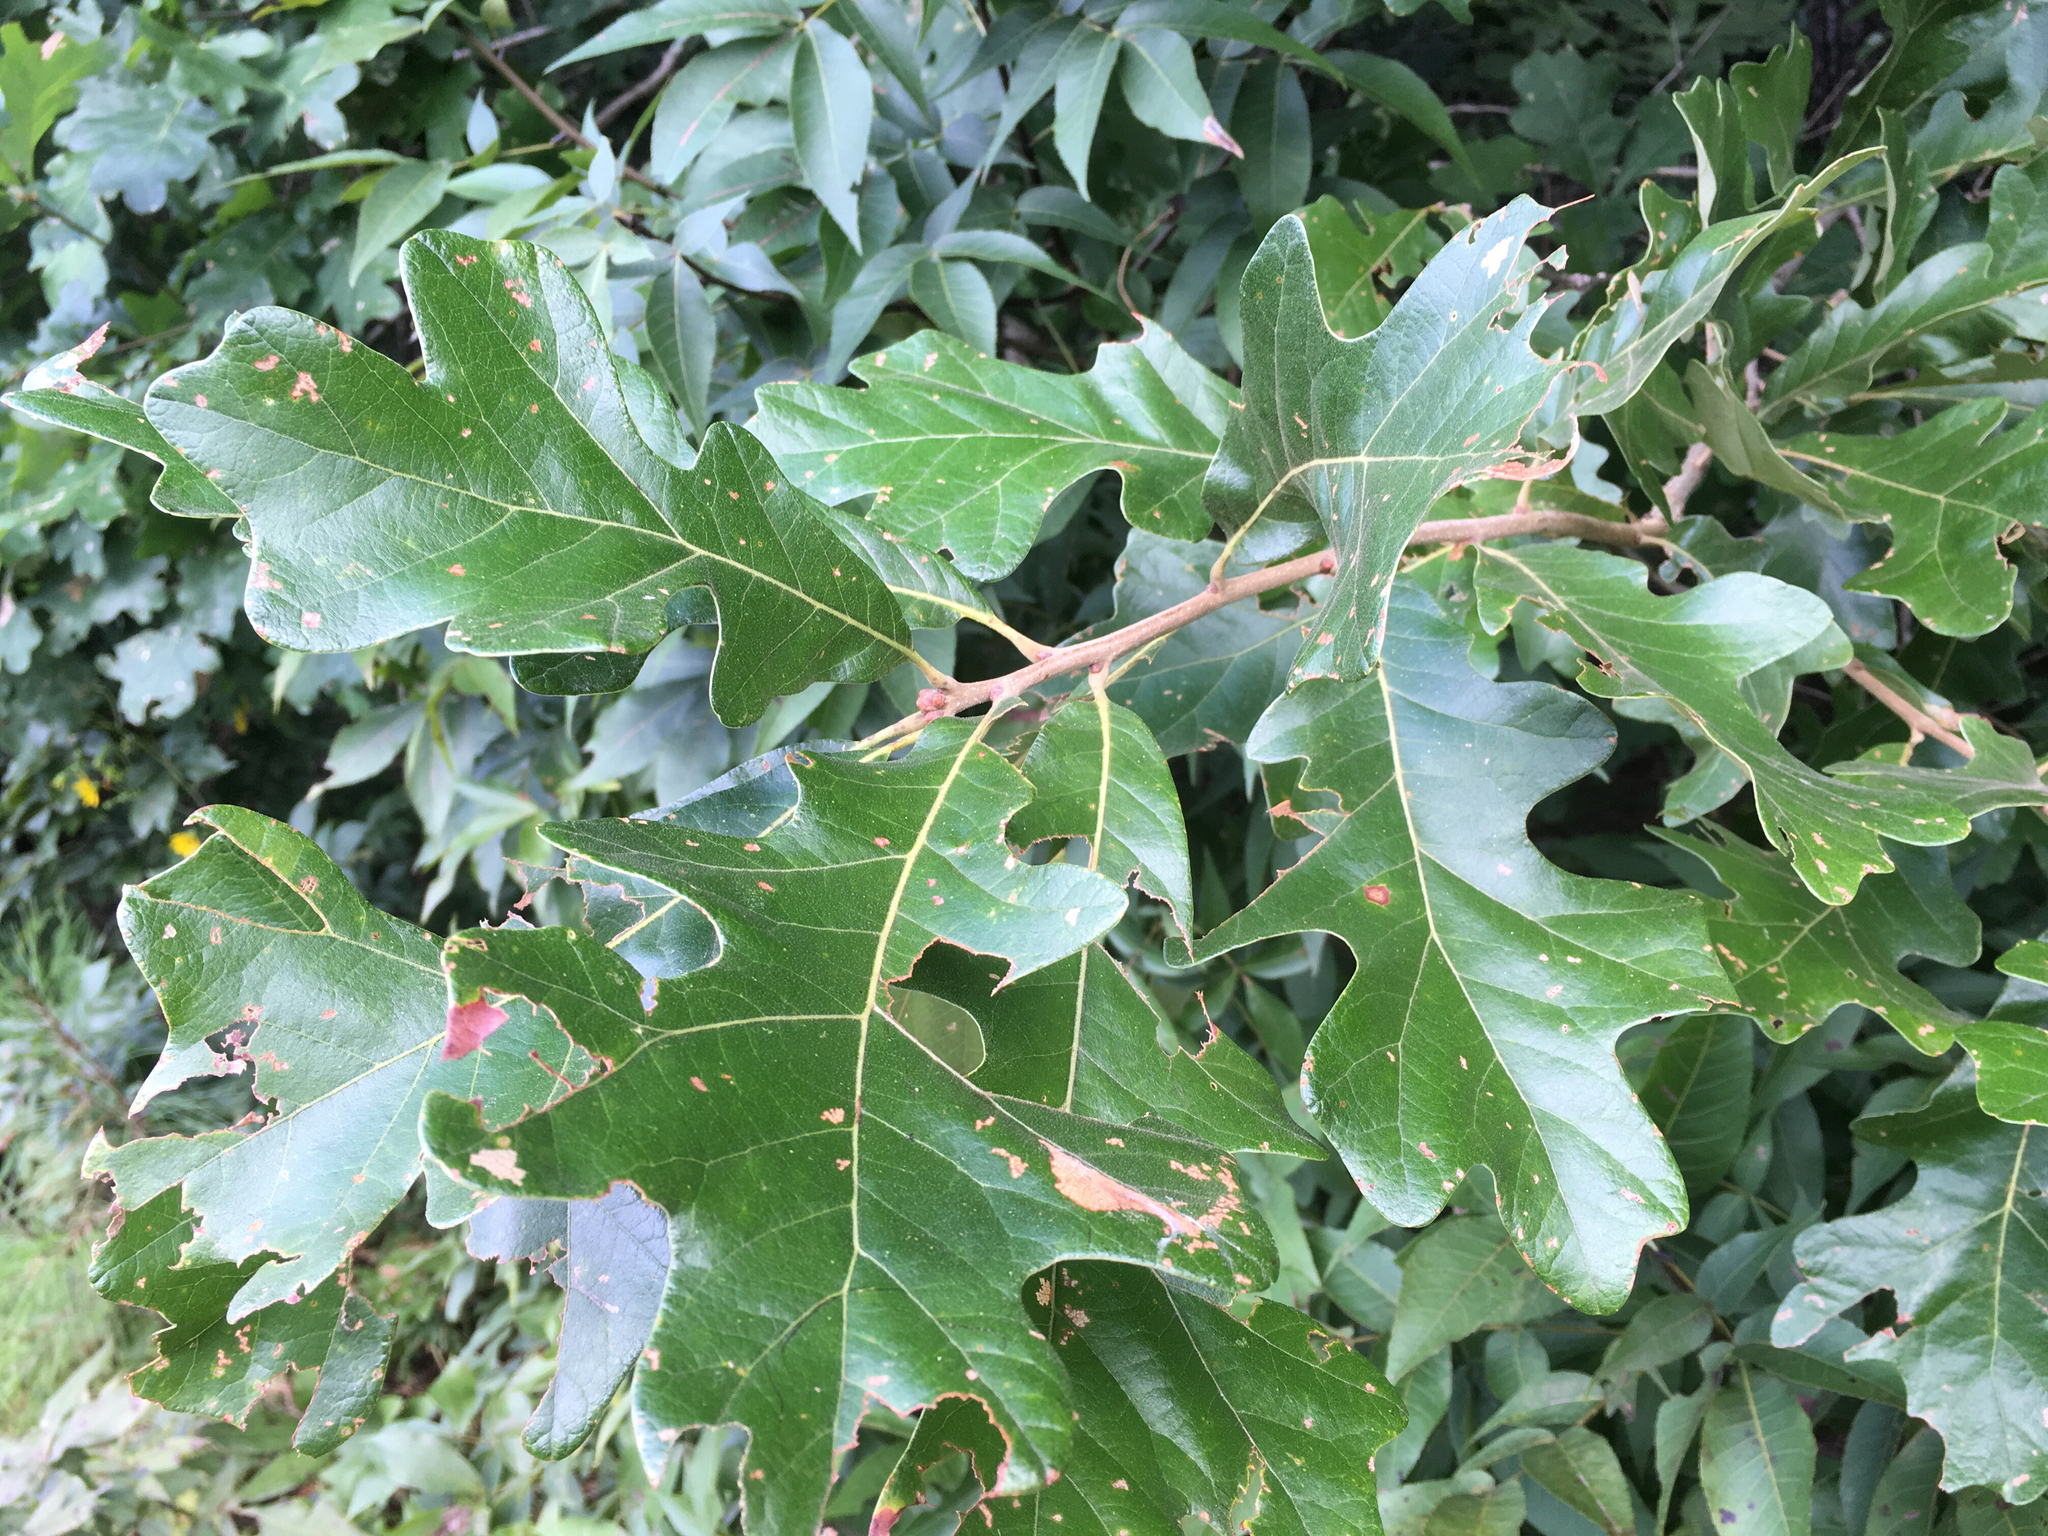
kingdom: Plantae
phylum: Tracheophyta
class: Magnoliopsida
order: Fagales
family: Fagaceae
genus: Quercus
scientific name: Quercus stellata
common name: Post oak
